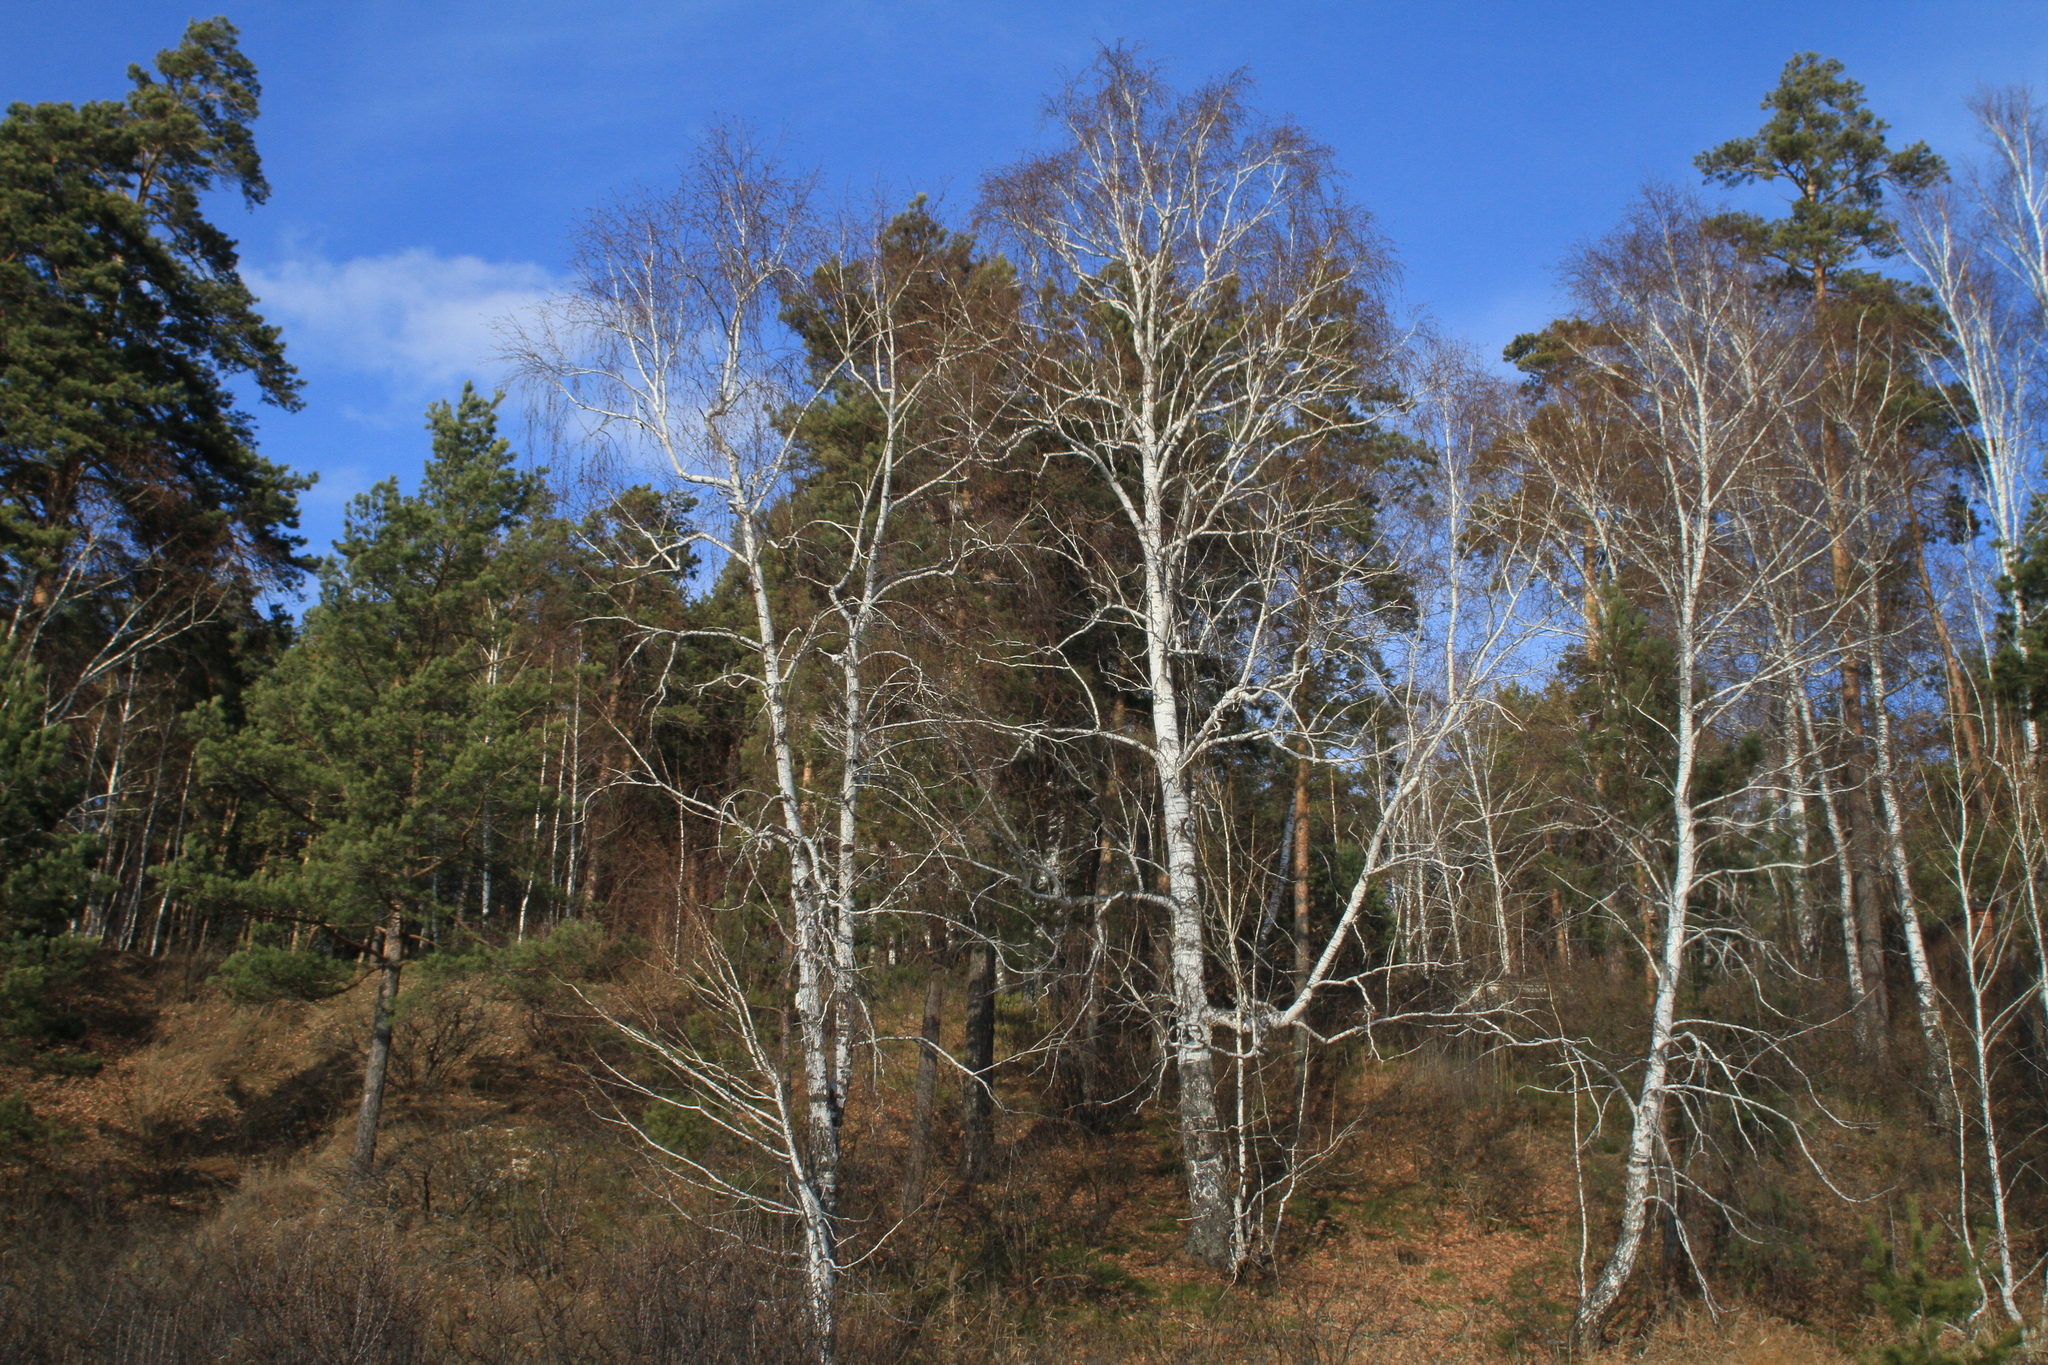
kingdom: Plantae
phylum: Tracheophyta
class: Pinopsida
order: Pinales
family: Pinaceae
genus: Pinus
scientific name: Pinus sylvestris
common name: Scots pine
